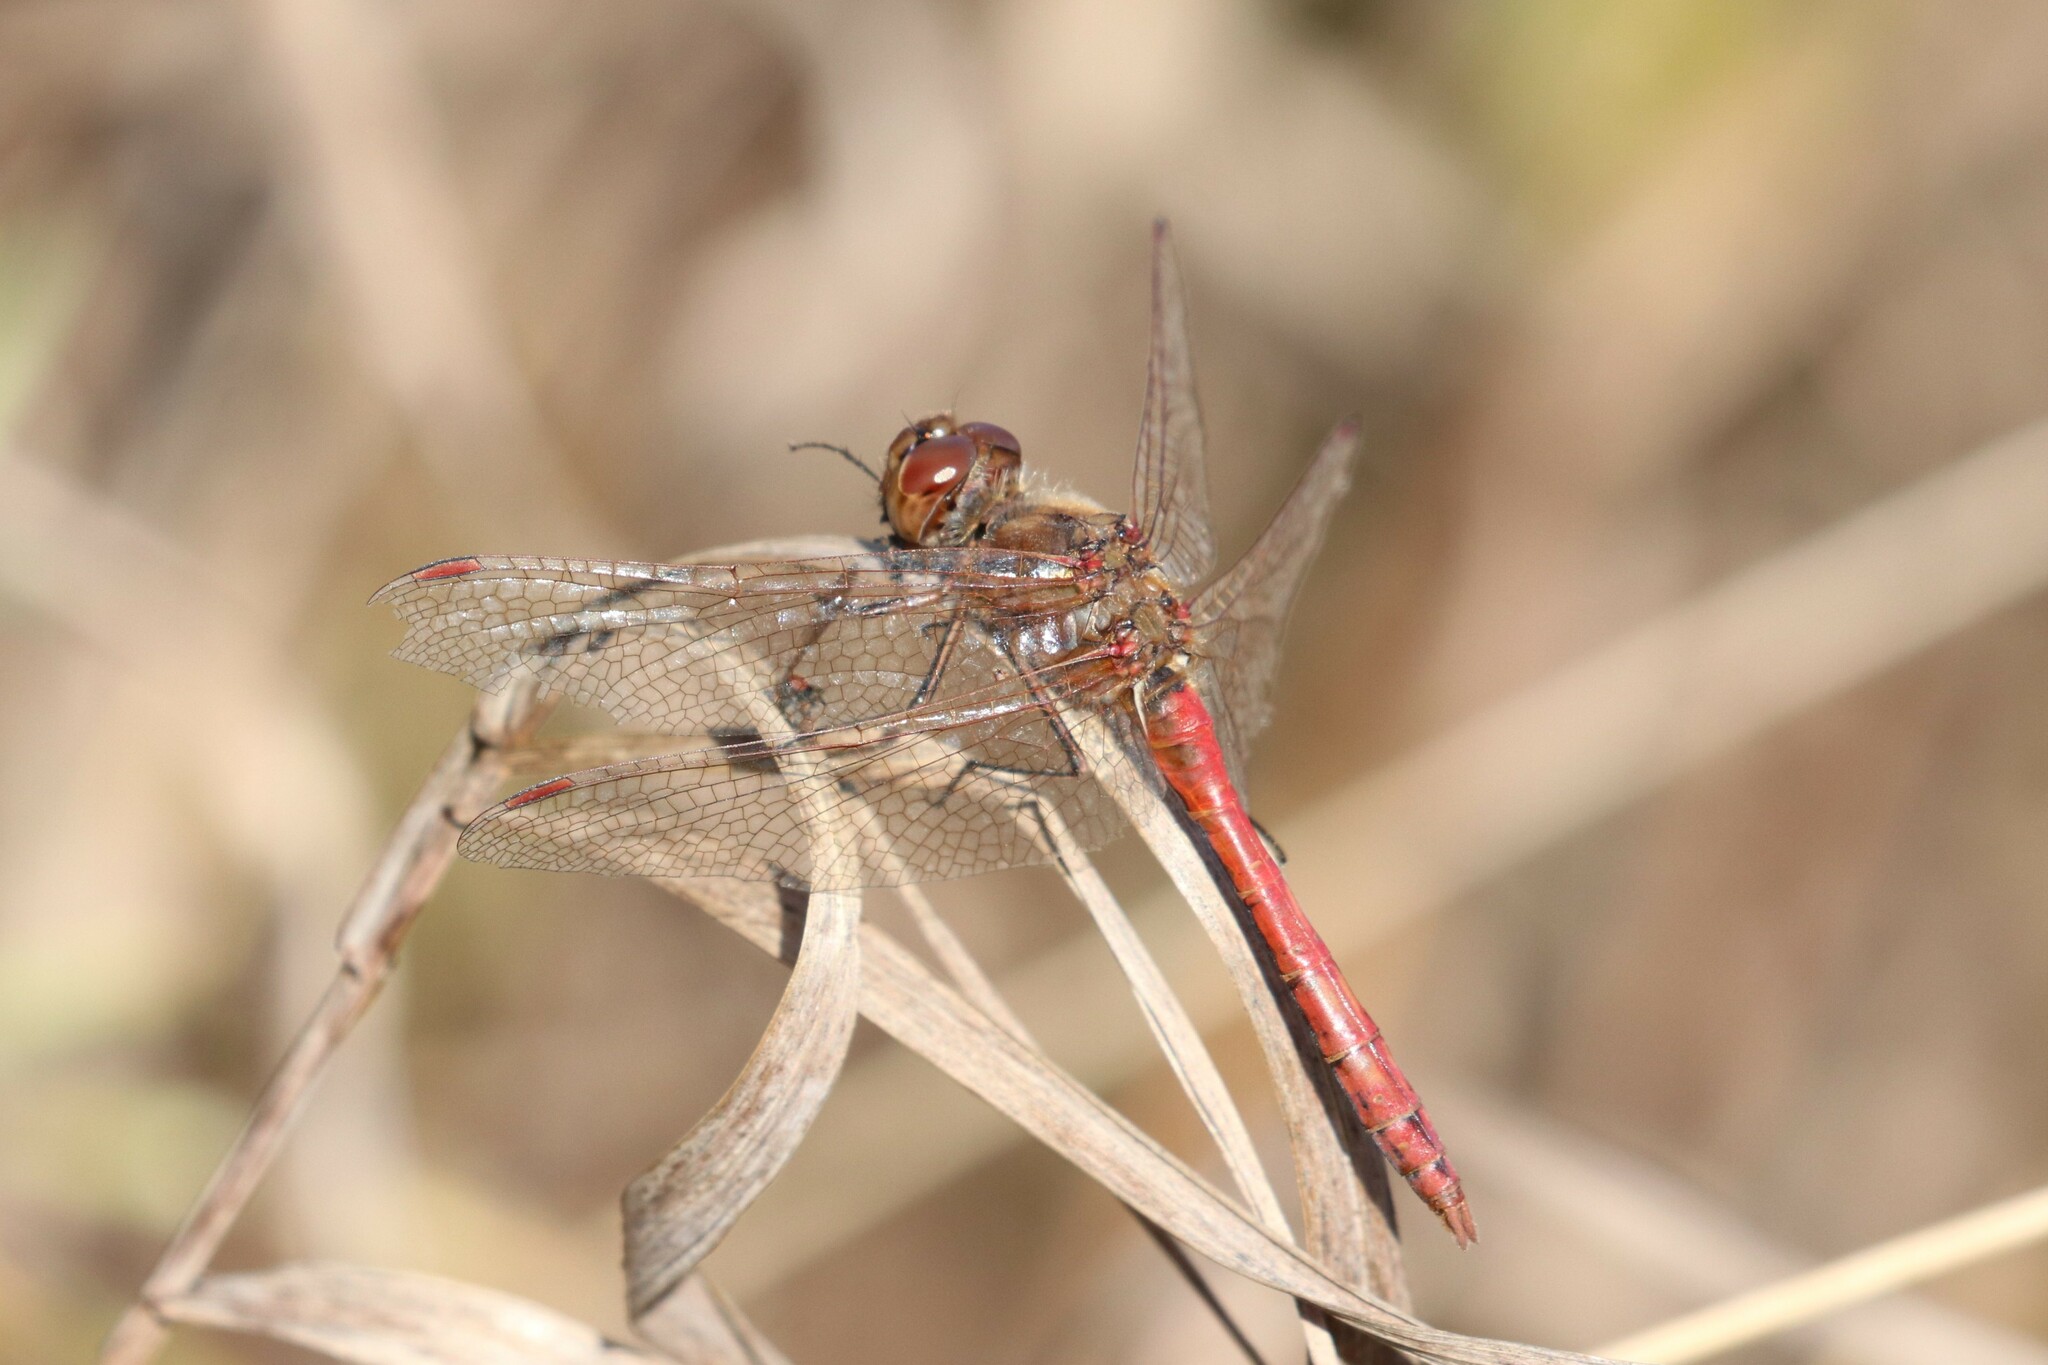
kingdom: Animalia
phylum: Arthropoda
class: Insecta
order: Odonata
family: Libellulidae
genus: Sympetrum
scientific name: Sympetrum vulgatum
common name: Vagrant darter
